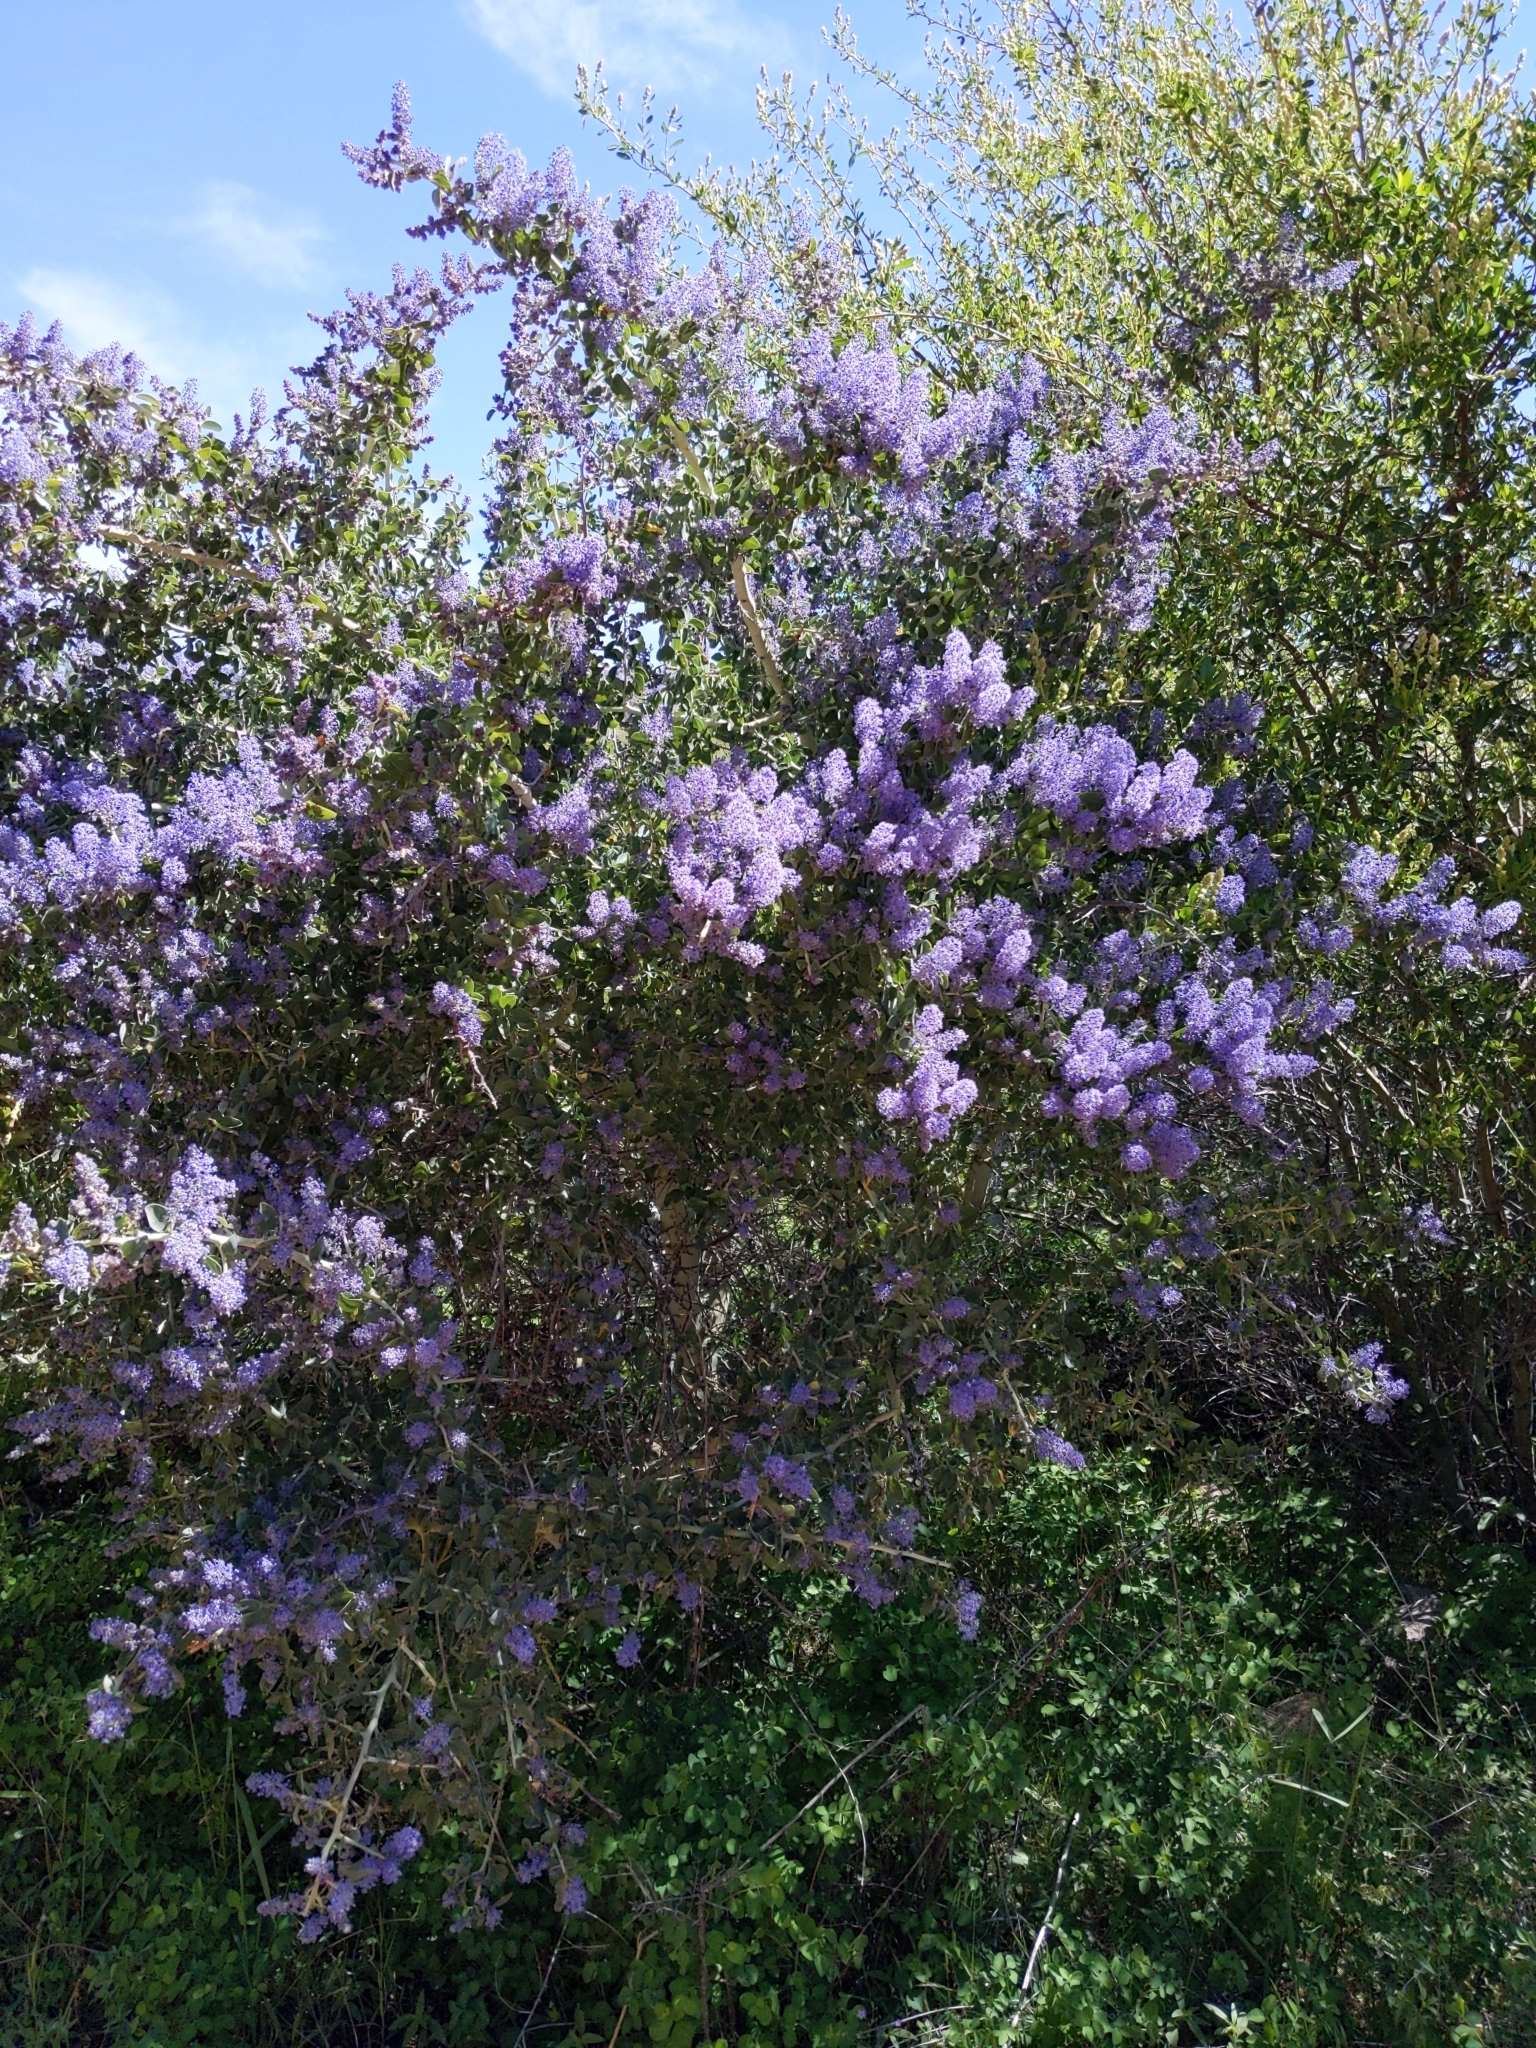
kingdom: Plantae
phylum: Tracheophyta
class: Magnoliopsida
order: Rosales
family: Rhamnaceae
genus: Ceanothus
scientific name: Ceanothus leucodermis
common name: Chaparral whitethorn
